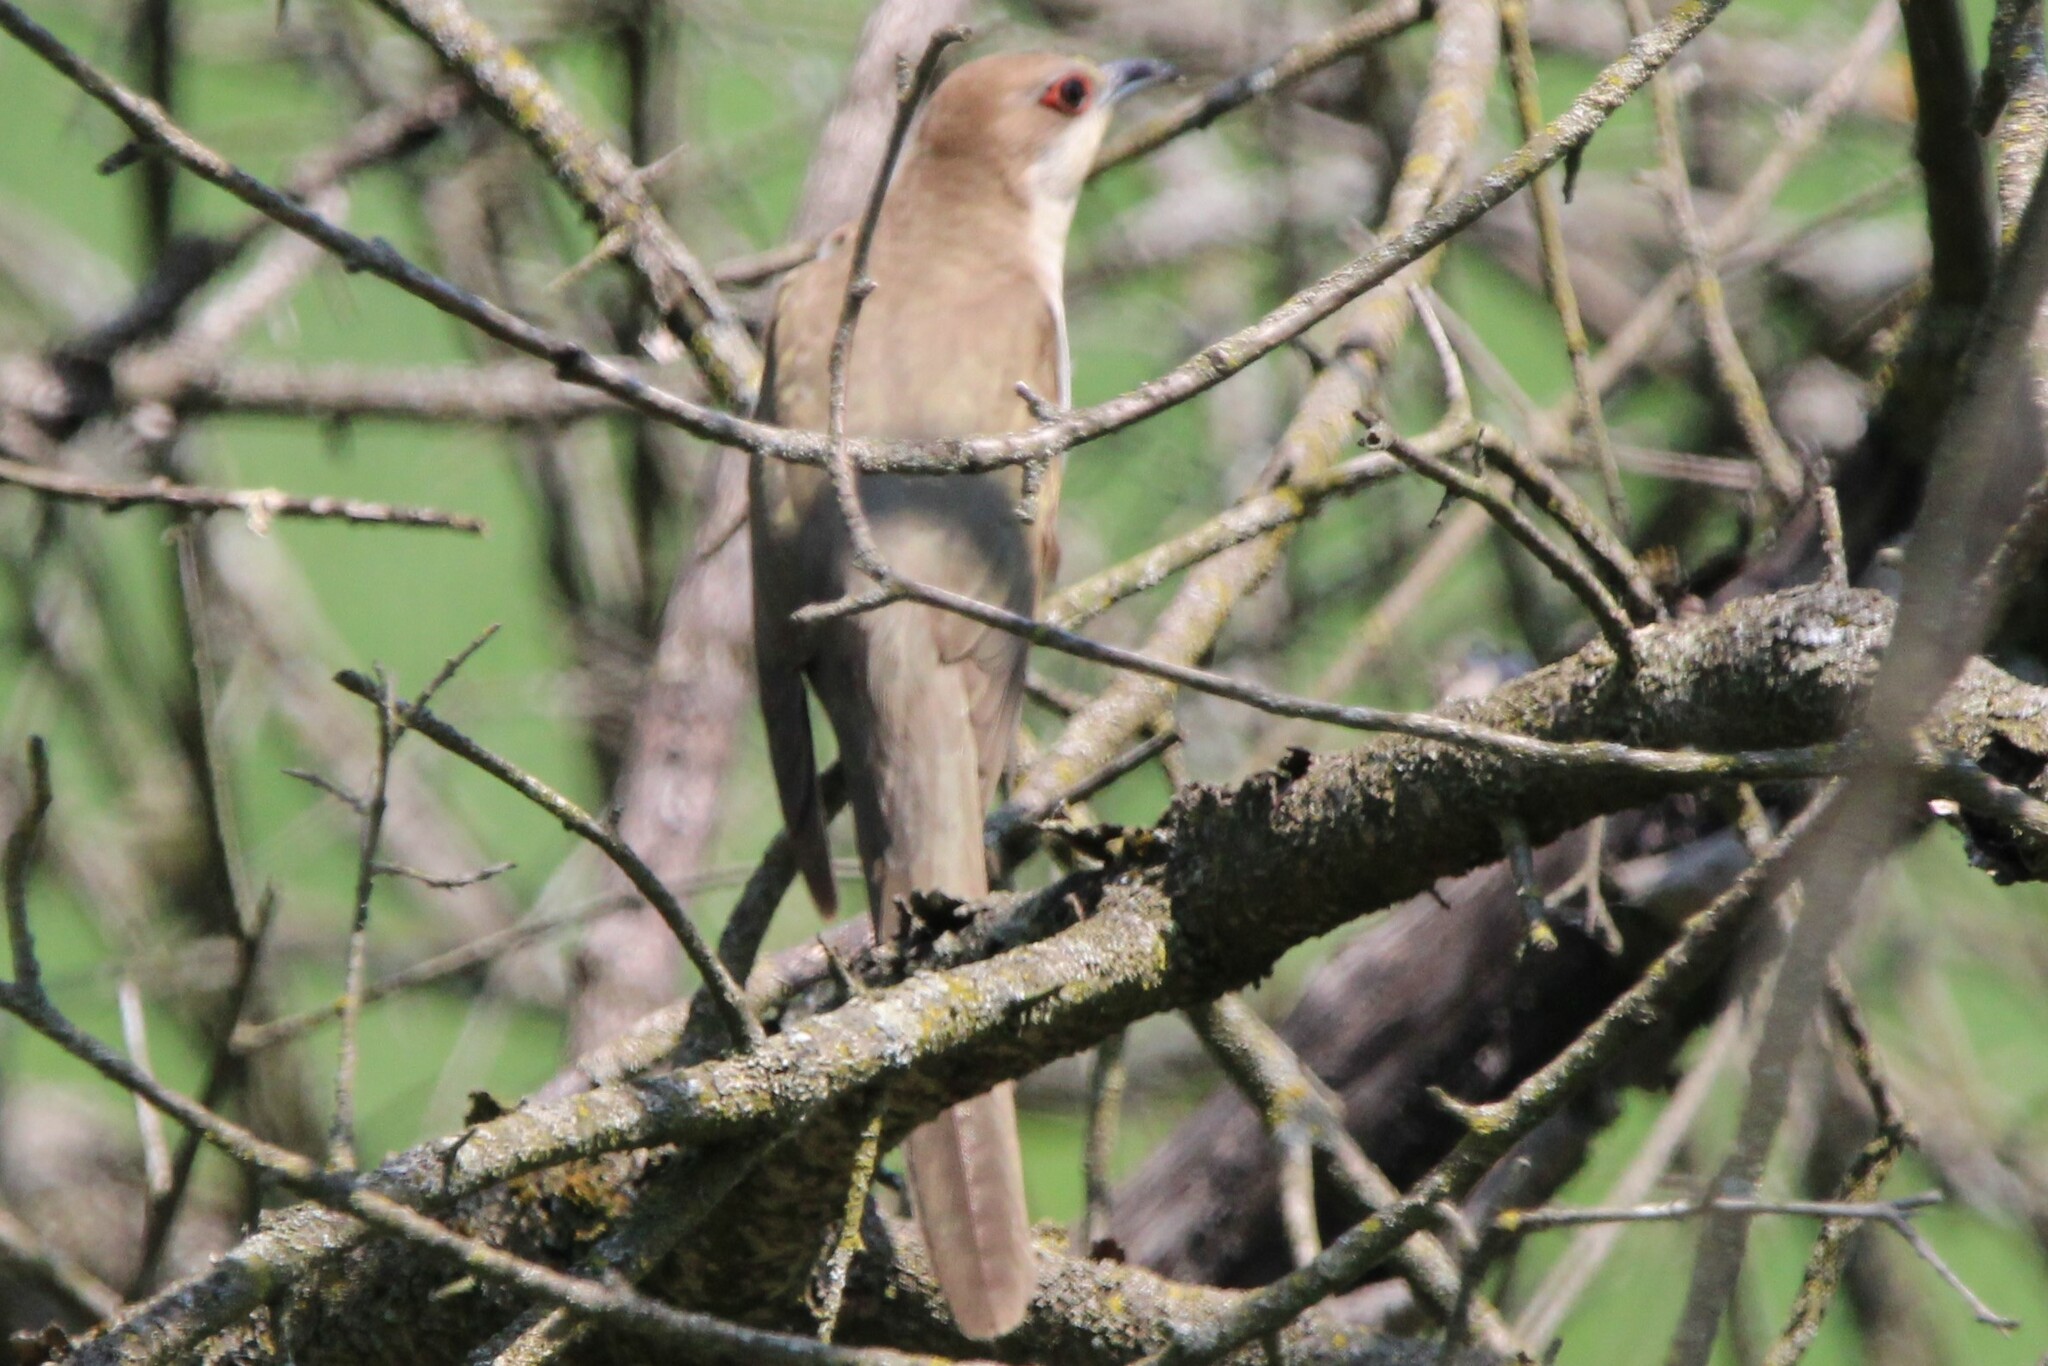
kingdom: Animalia
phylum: Chordata
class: Aves
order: Cuculiformes
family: Cuculidae
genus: Coccyzus
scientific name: Coccyzus erythropthalmus
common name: Black-billed cuckoo
